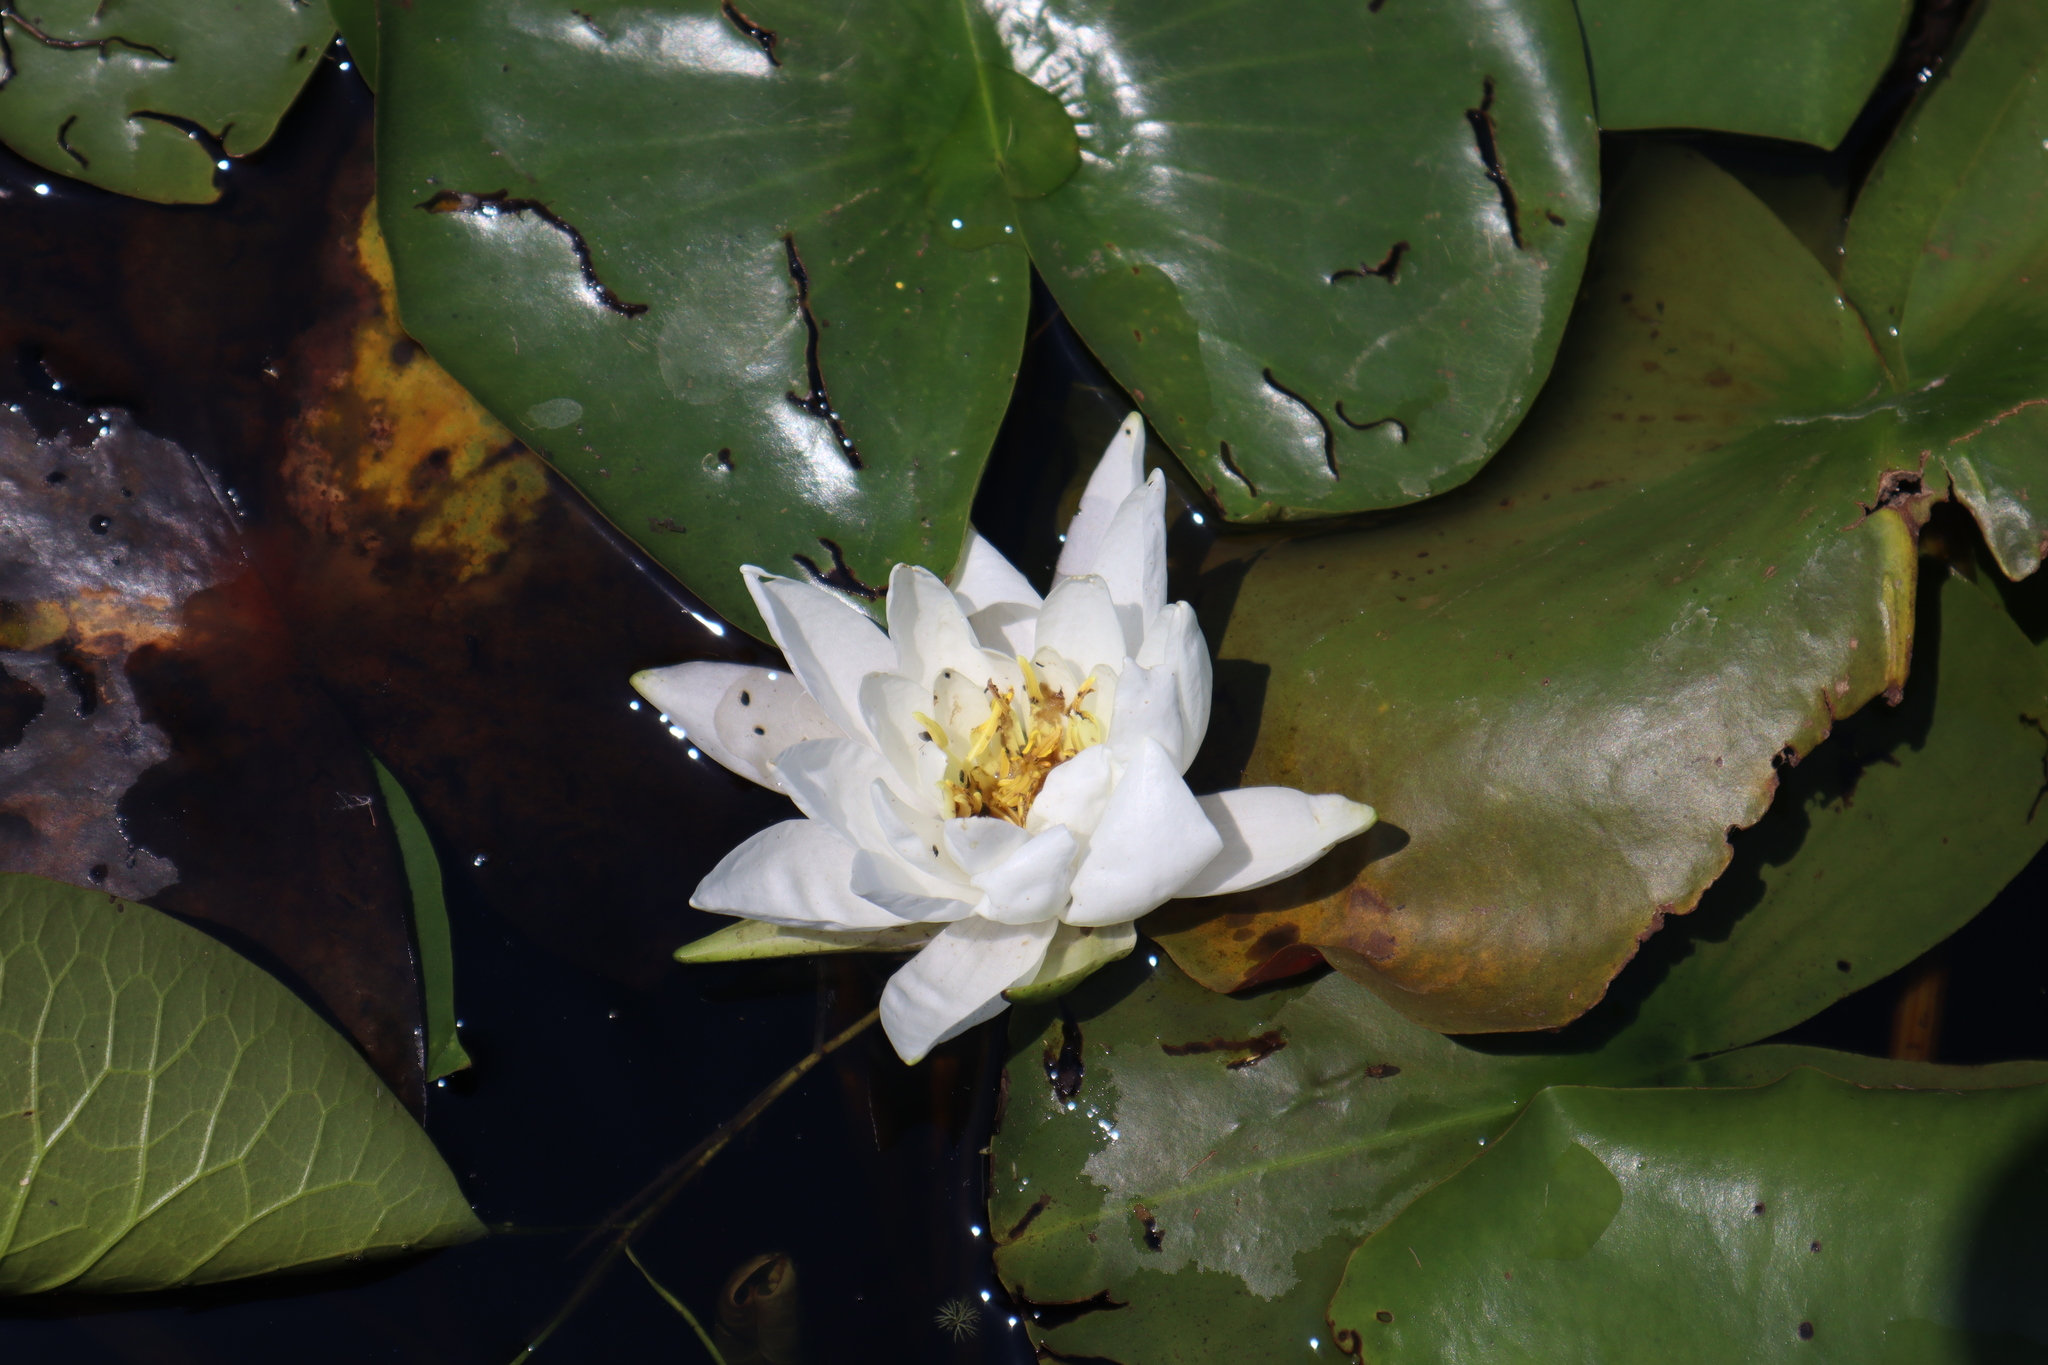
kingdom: Plantae
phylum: Tracheophyta
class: Magnoliopsida
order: Nymphaeales
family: Nymphaeaceae
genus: Nymphaea
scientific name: Nymphaea odorata
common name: Fragrant water-lily
